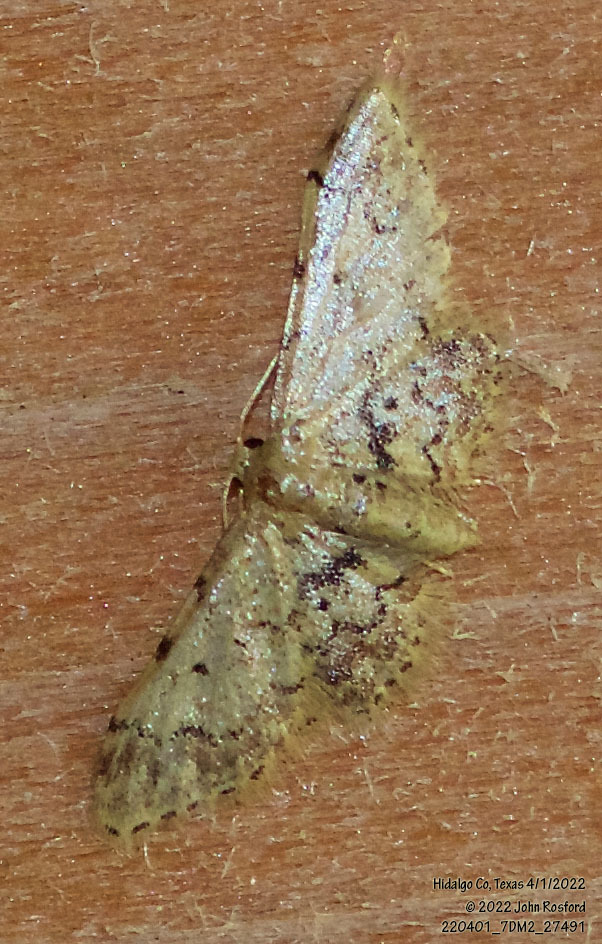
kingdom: Animalia
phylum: Arthropoda
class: Insecta
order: Lepidoptera
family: Geometridae
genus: Idaea
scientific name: Idaea pervertipennis
